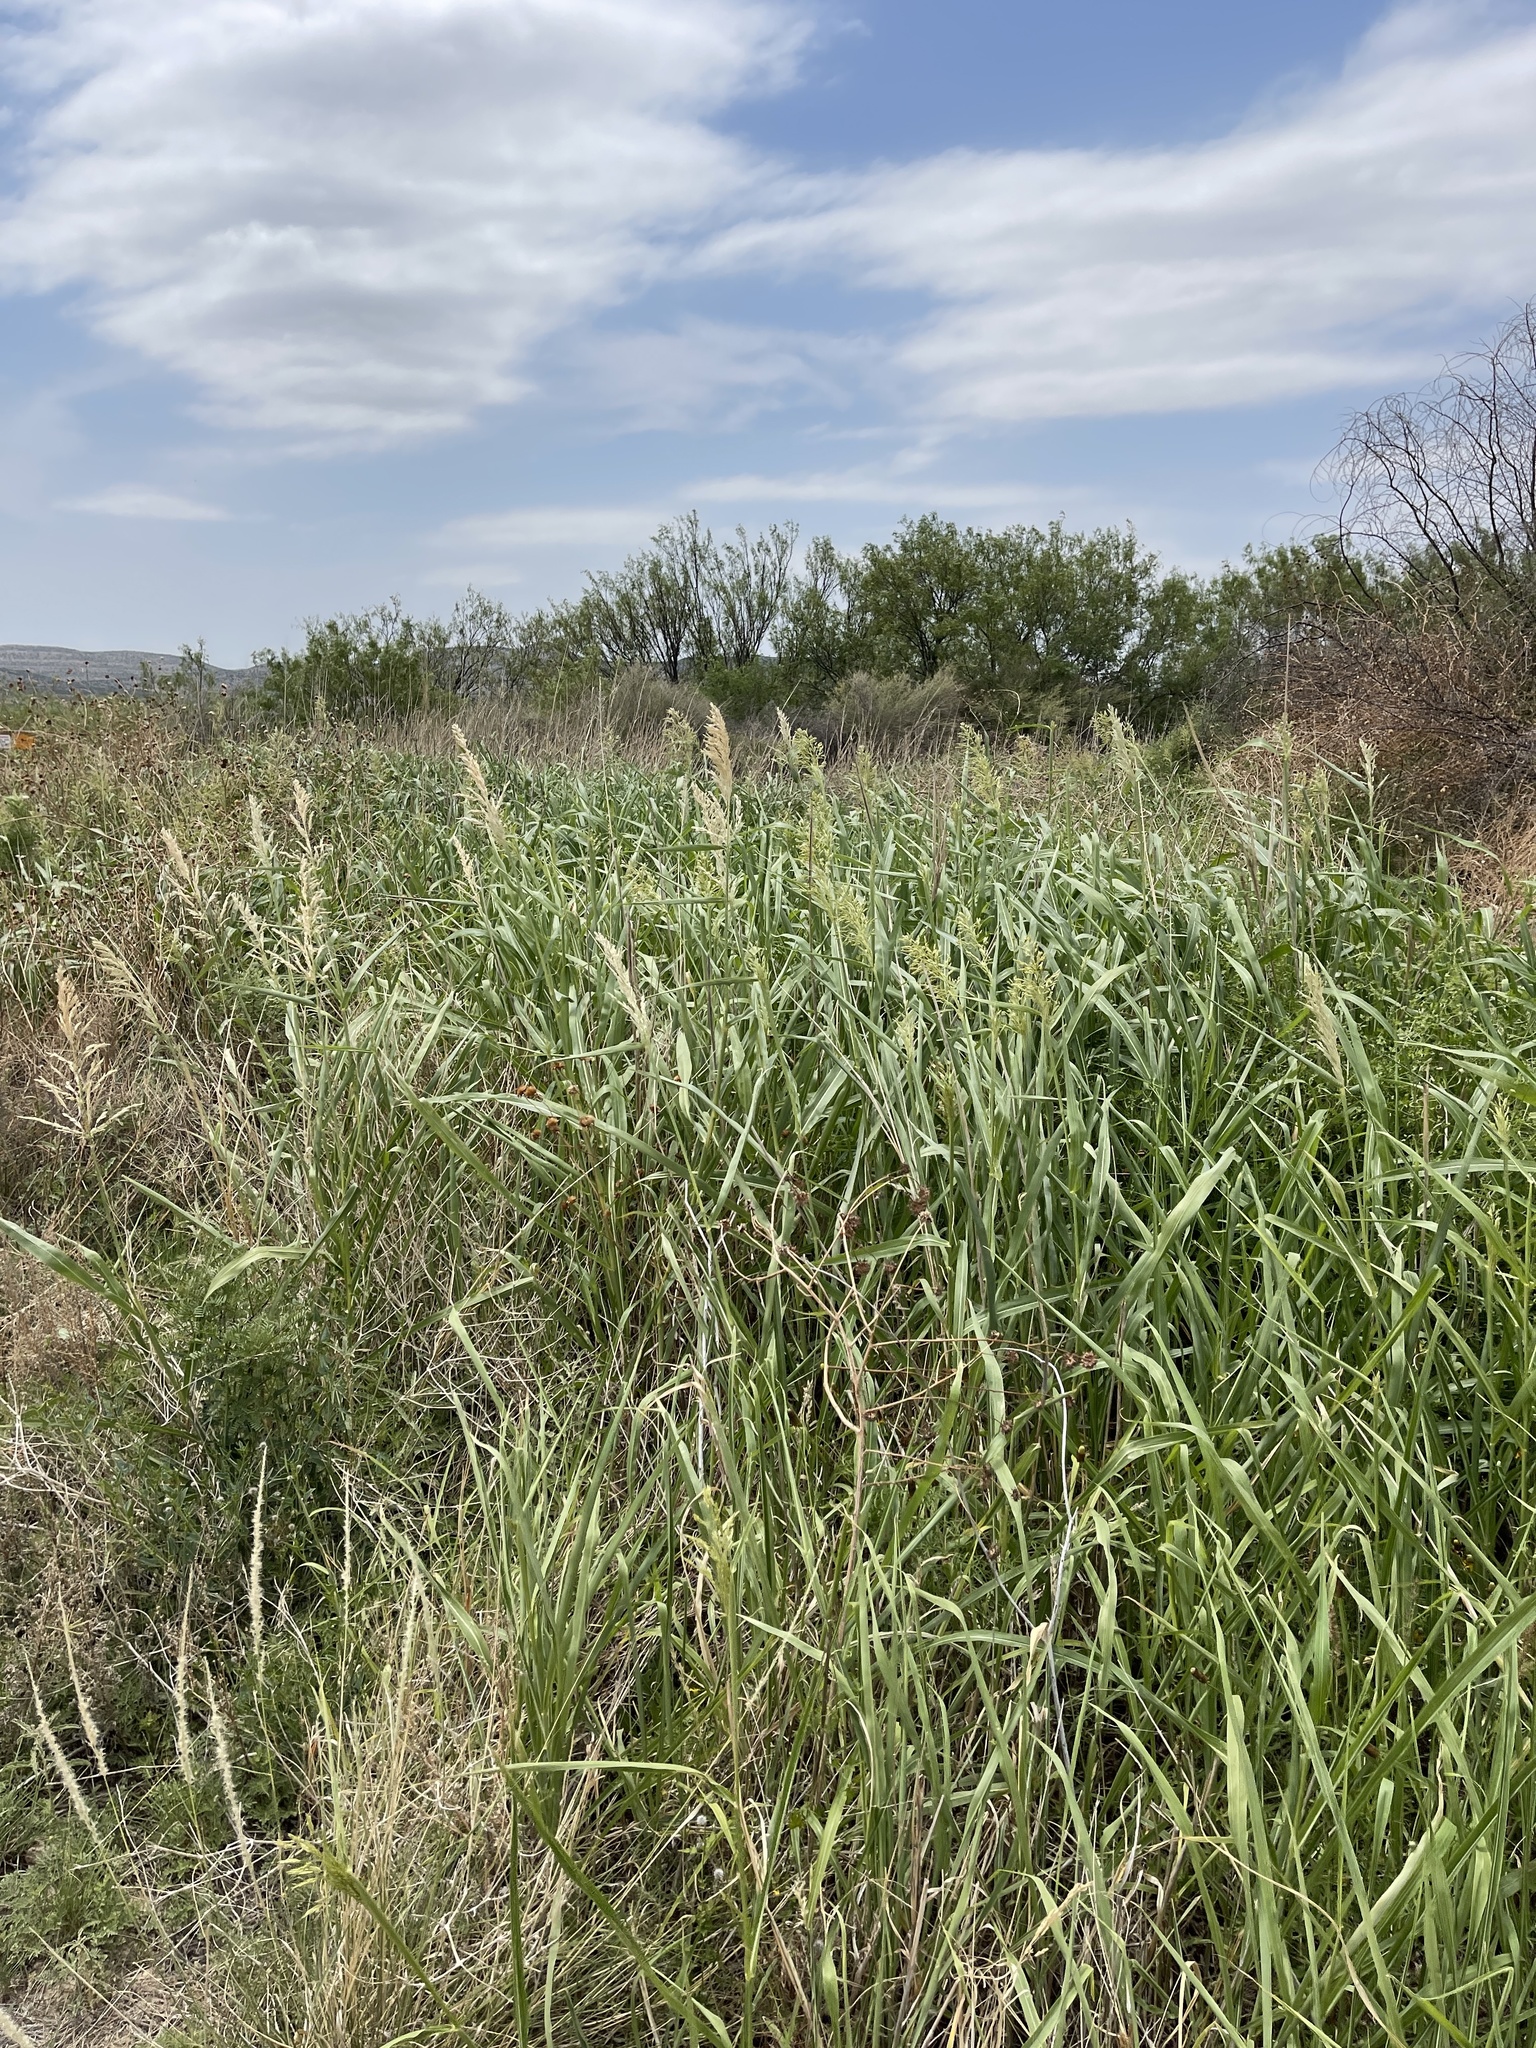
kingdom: Plantae
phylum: Tracheophyta
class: Liliopsida
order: Poales
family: Poaceae
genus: Sorghum
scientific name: Sorghum halepense
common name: Johnson-grass
